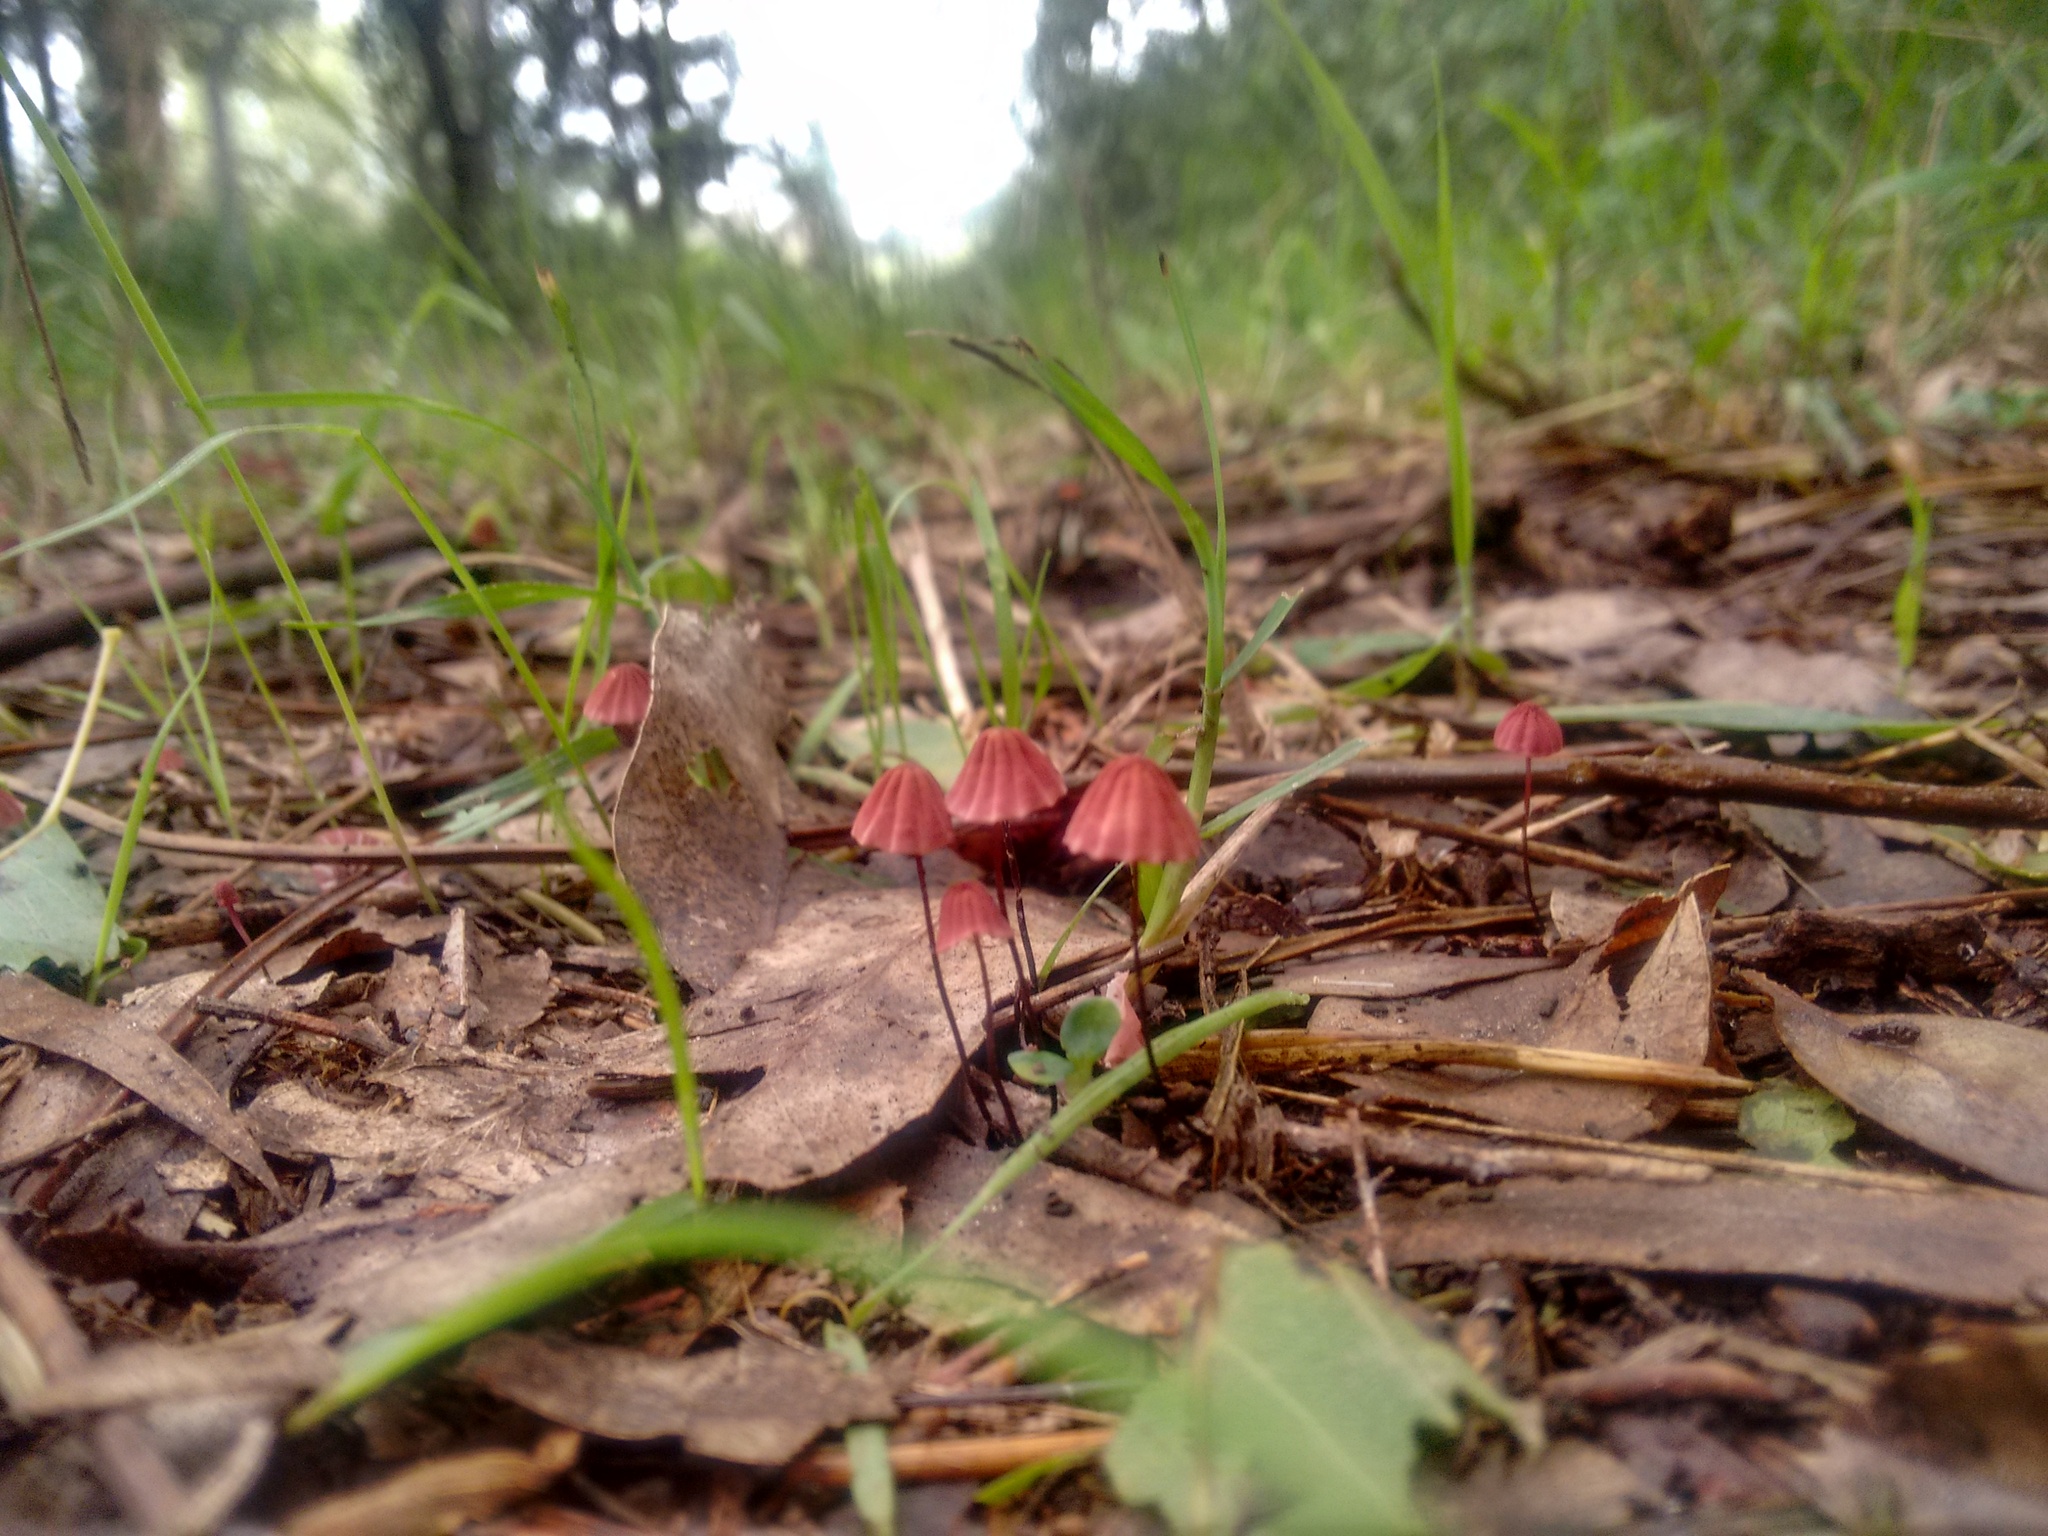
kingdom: Fungi
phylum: Basidiomycota
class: Agaricomycetes
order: Agaricales
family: Marasmiaceae
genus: Marasmius
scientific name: Marasmius haematocephalus
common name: Purple pinwheel
